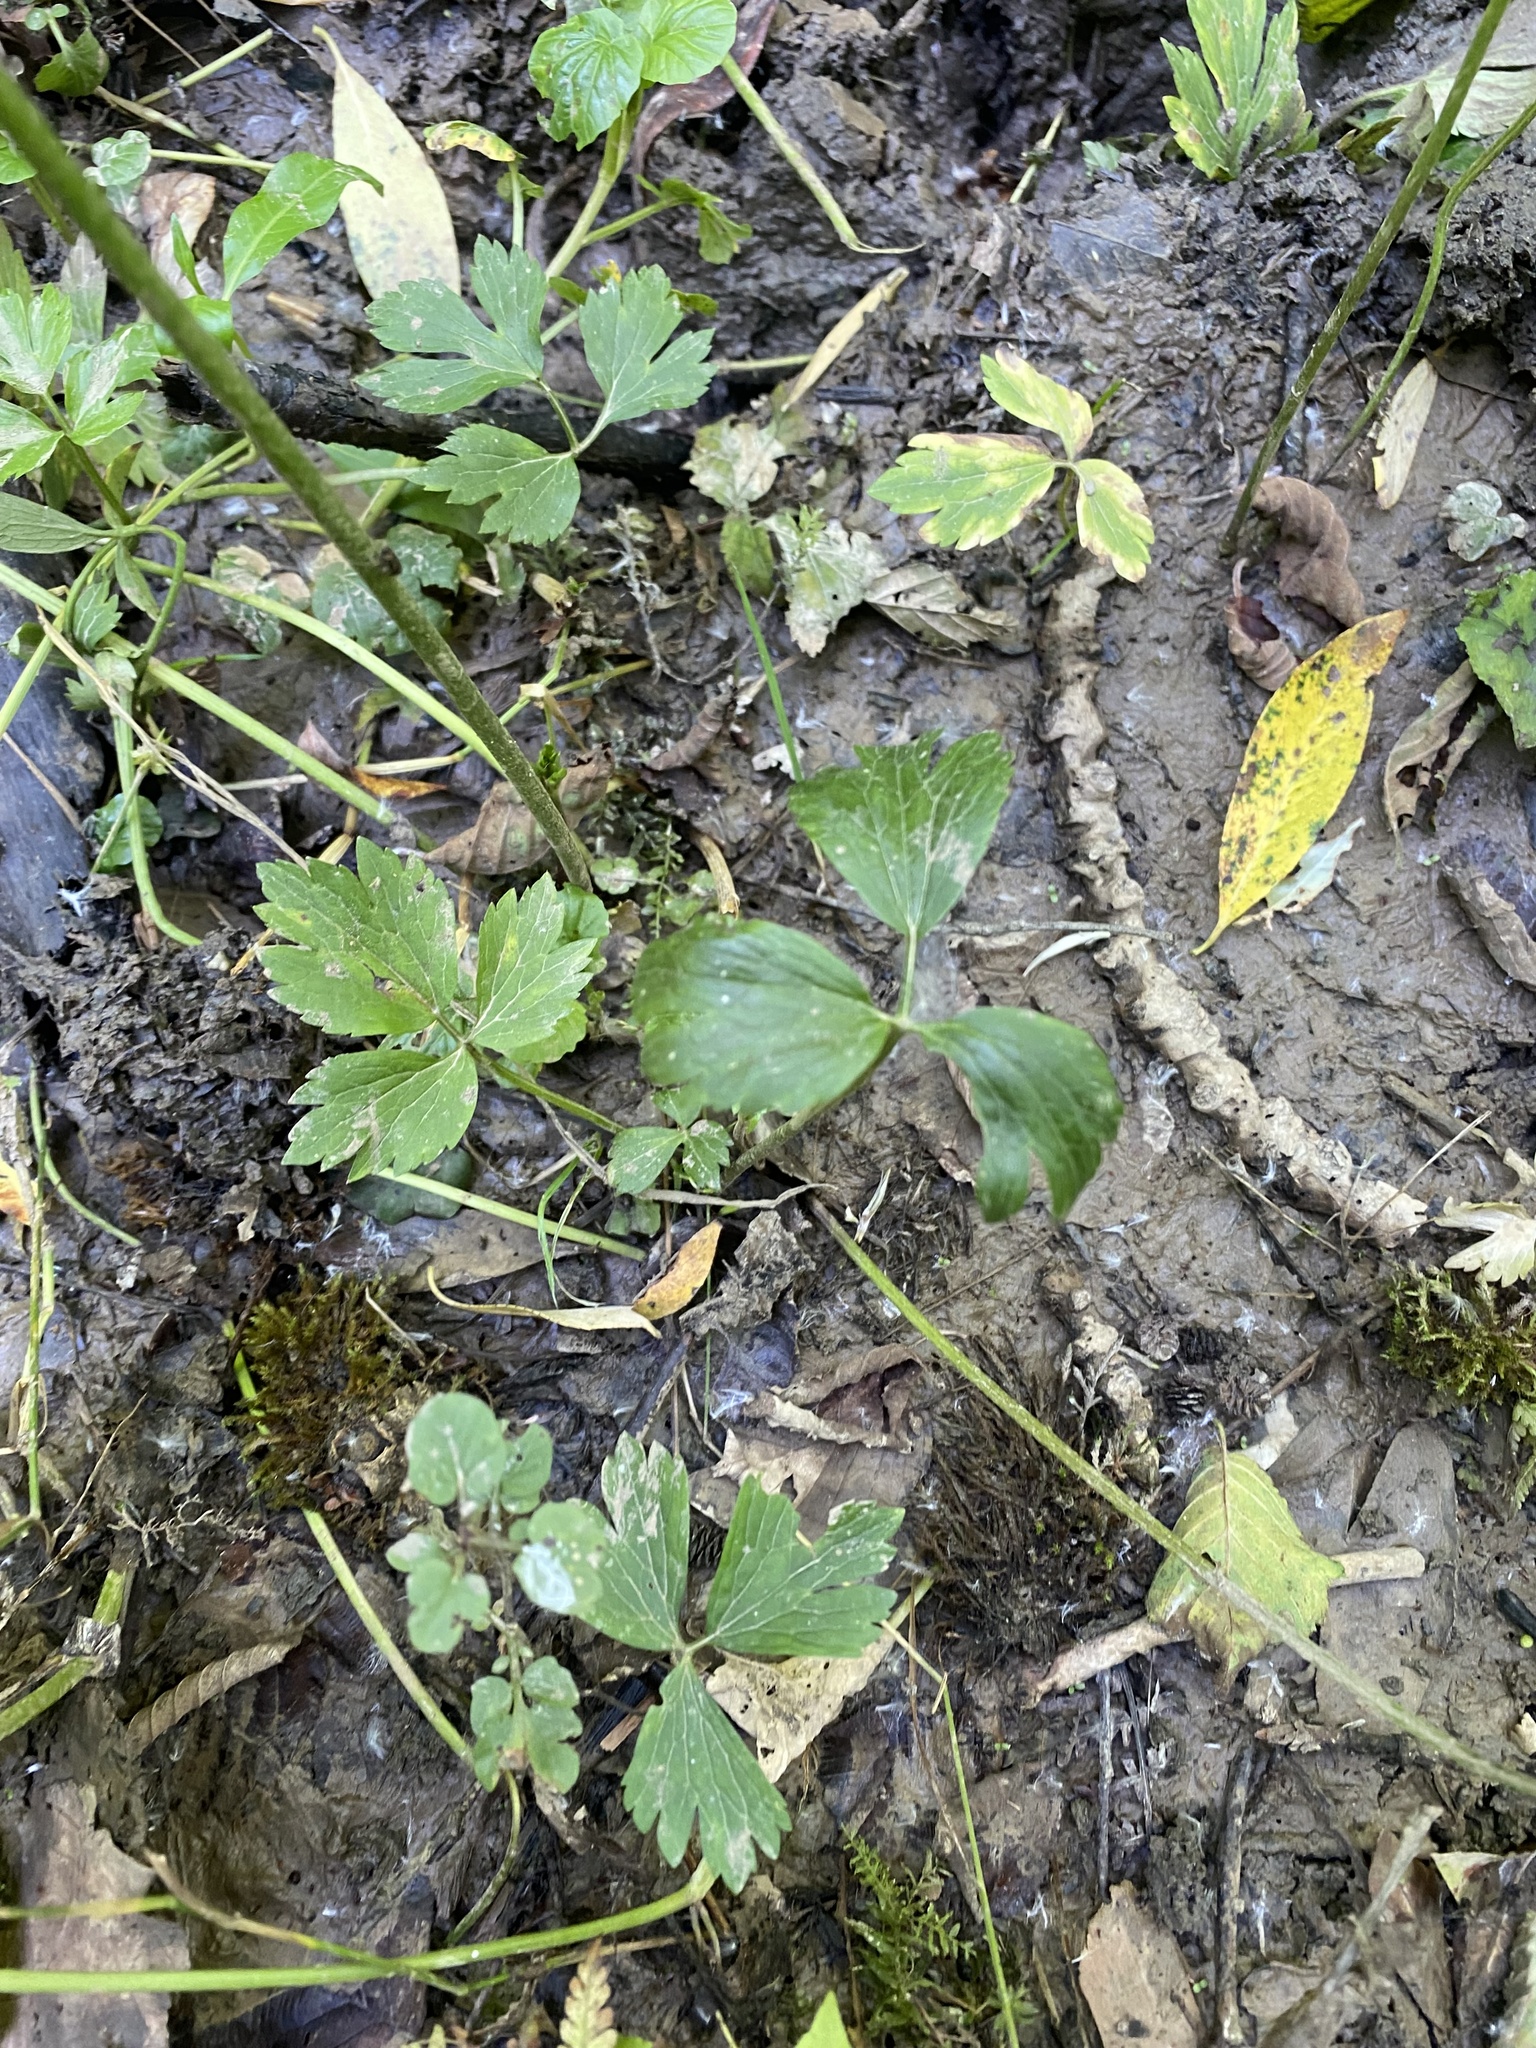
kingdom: Plantae
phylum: Tracheophyta
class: Magnoliopsida
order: Ranunculales
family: Ranunculaceae
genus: Ranunculus
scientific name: Ranunculus repens
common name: Creeping buttercup
